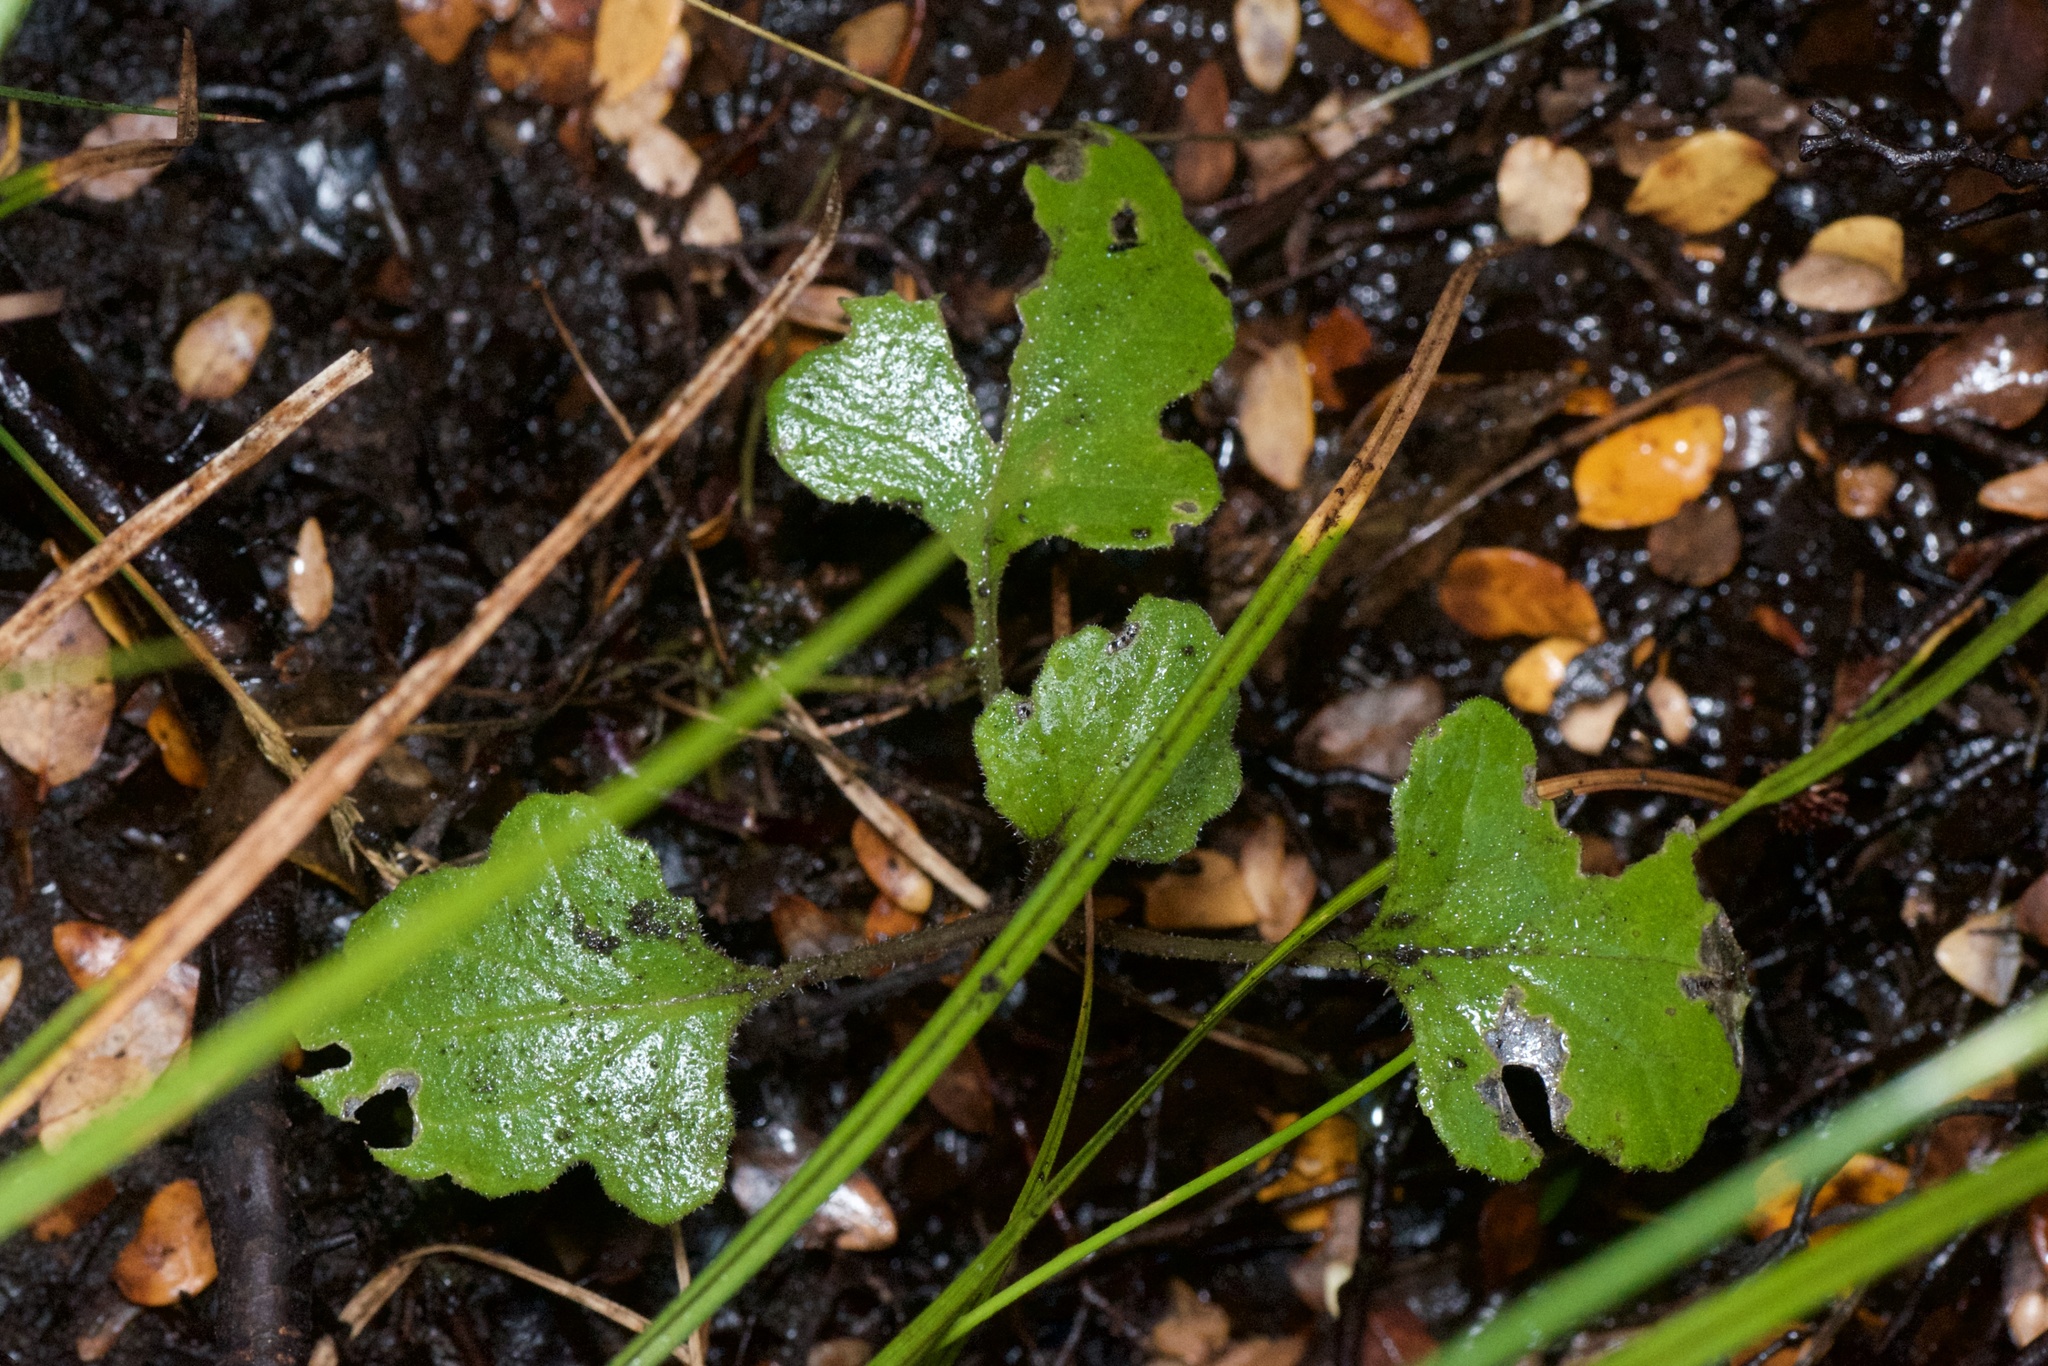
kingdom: Plantae
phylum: Tracheophyta
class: Magnoliopsida
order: Asterales
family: Asteraceae
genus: Senecio
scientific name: Senecio wairauensis
